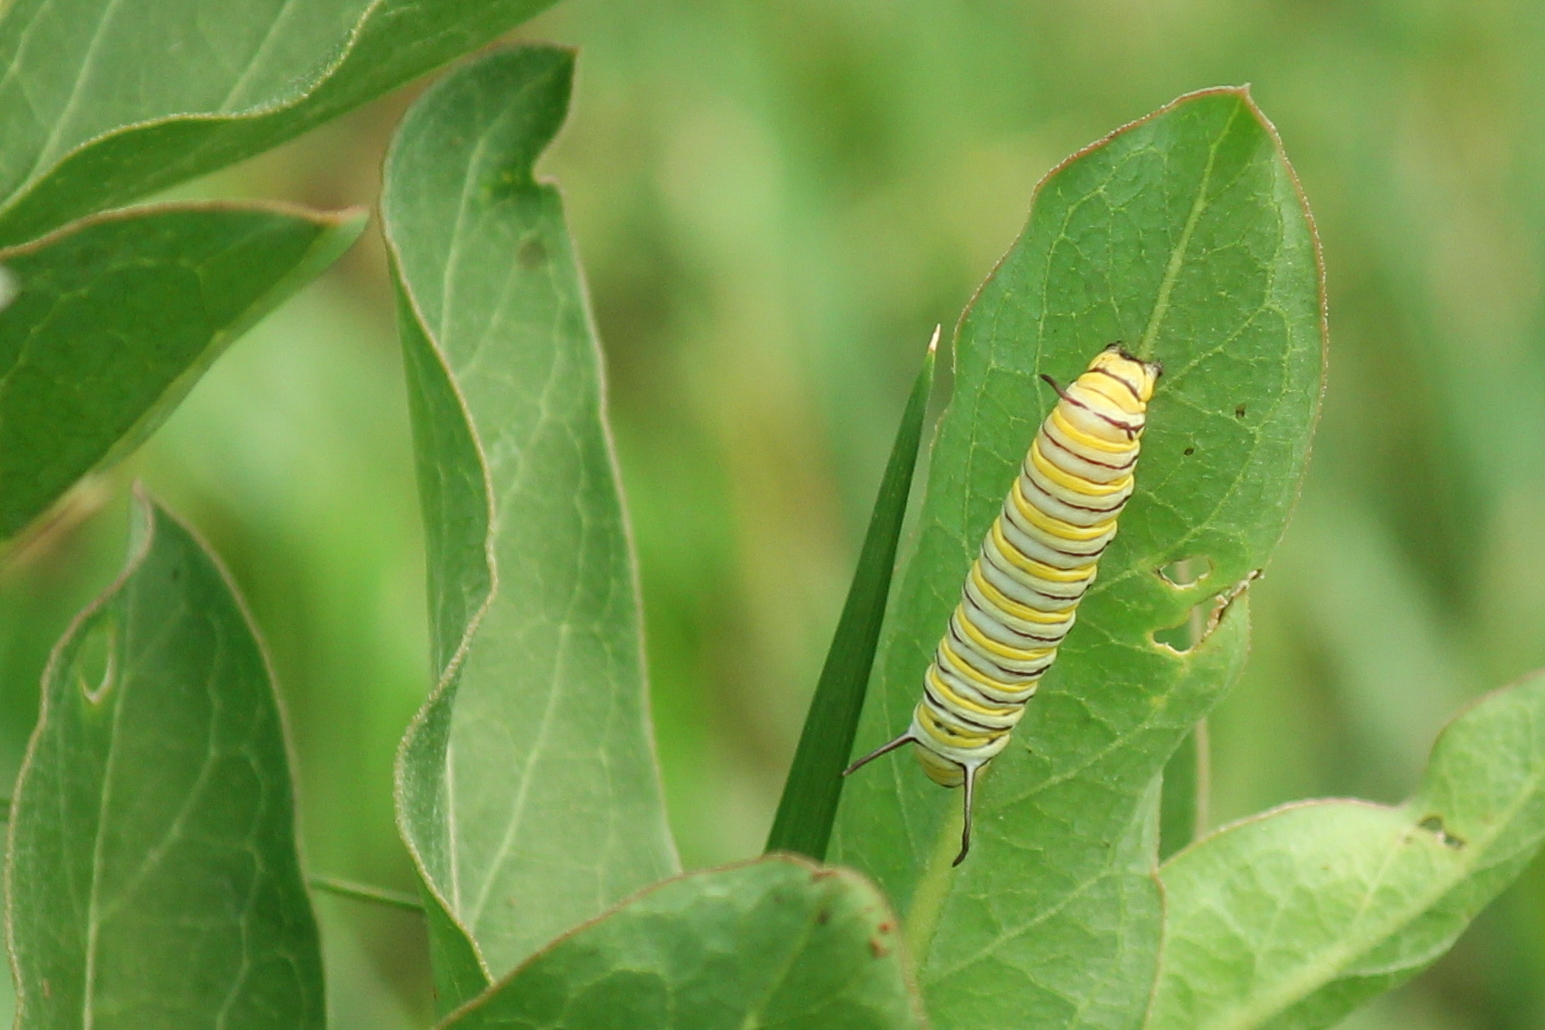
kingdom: Animalia
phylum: Arthropoda
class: Insecta
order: Lepidoptera
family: Nymphalidae
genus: Danaus
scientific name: Danaus plexippus
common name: Monarch
